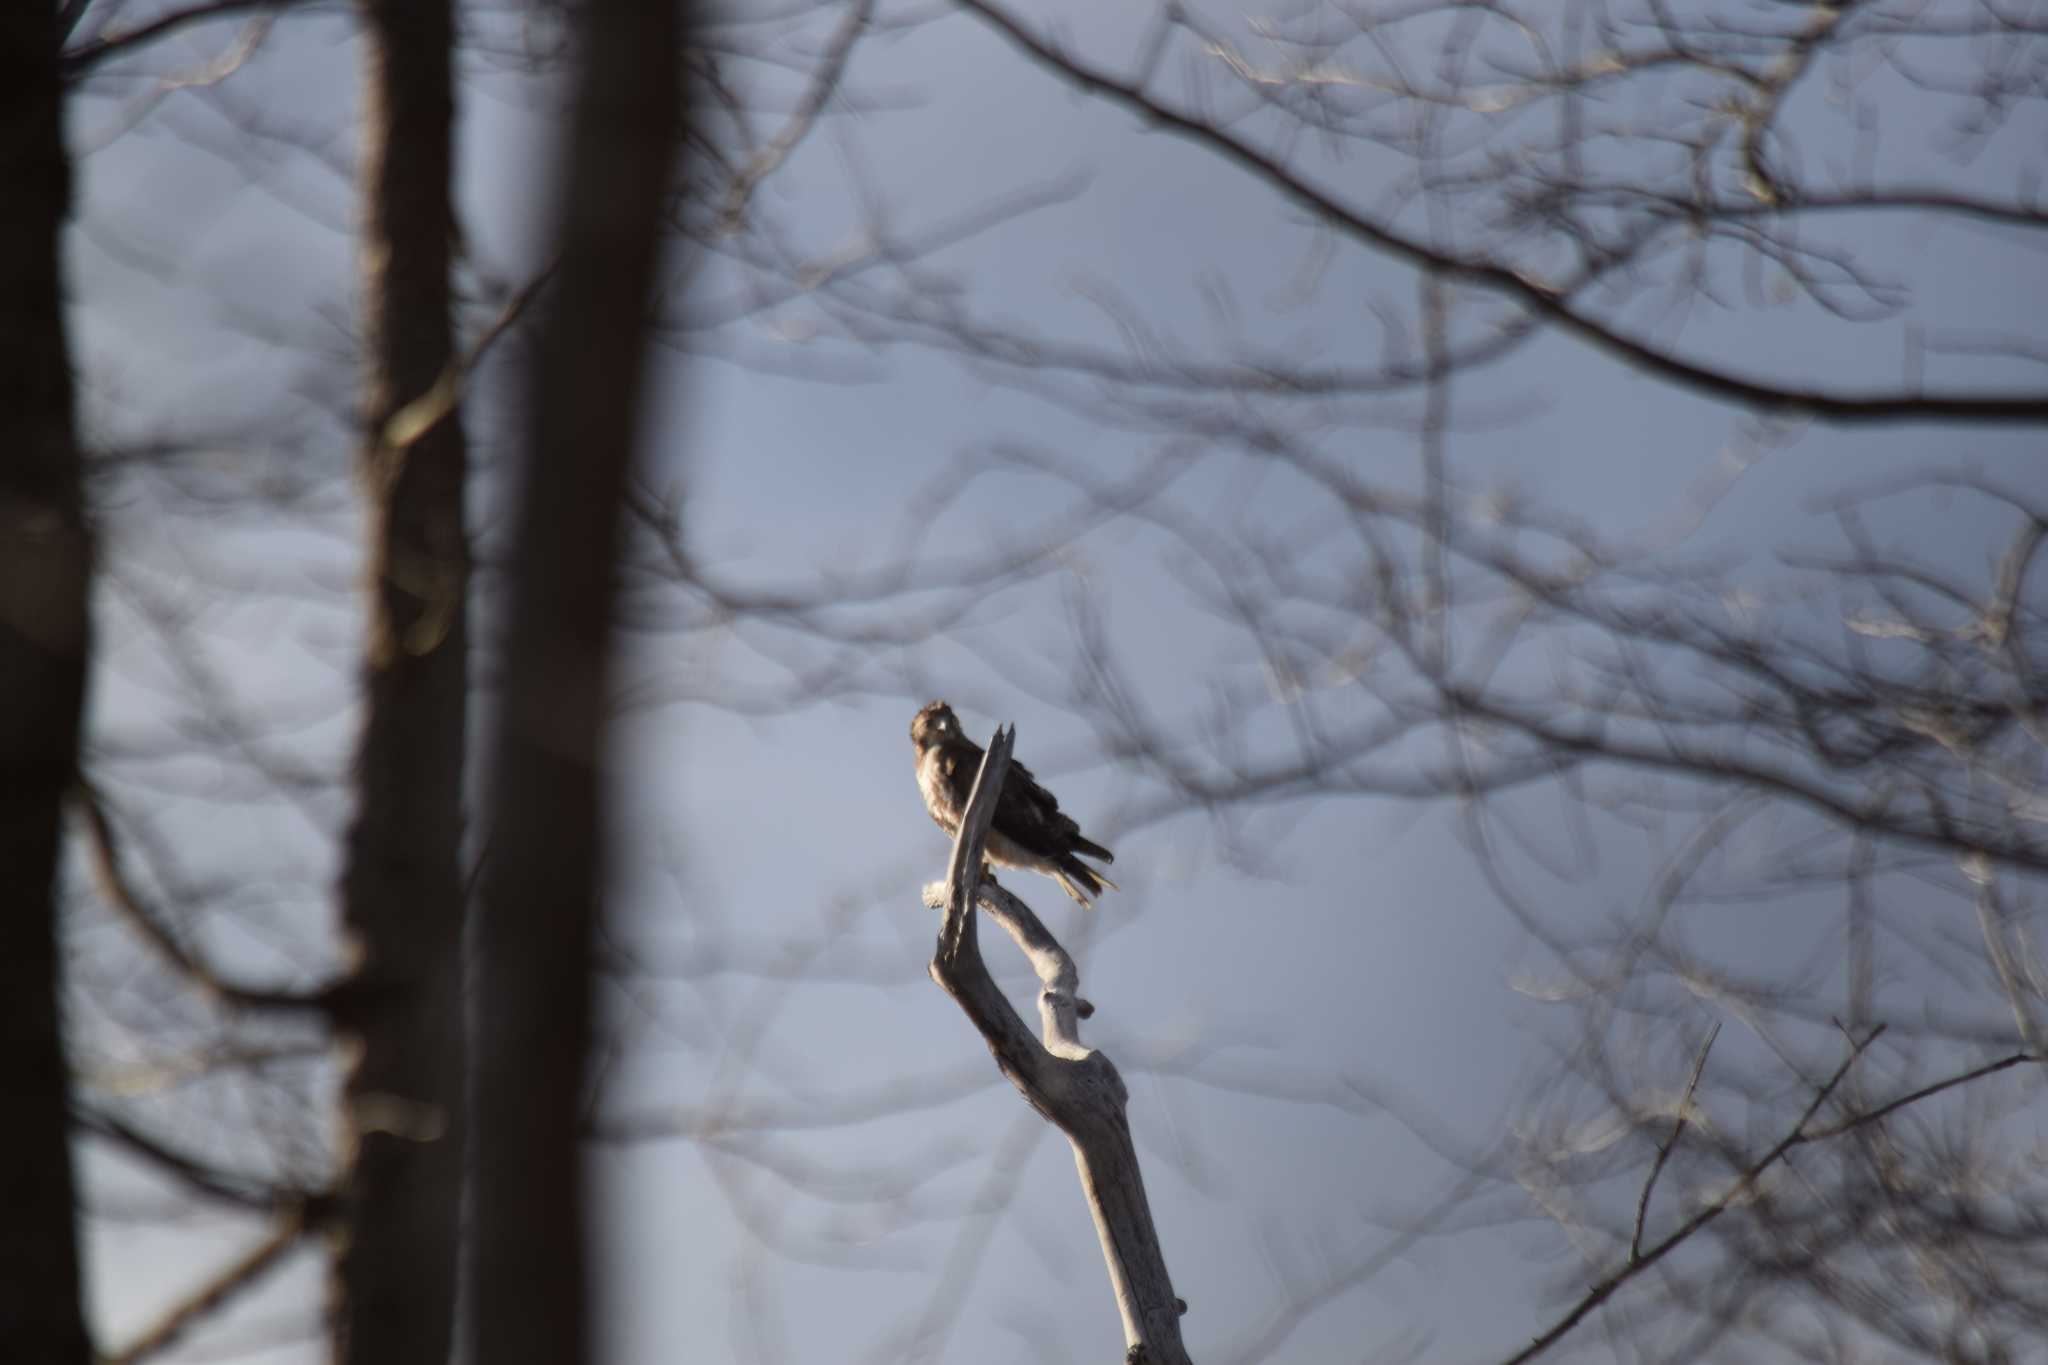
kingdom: Animalia
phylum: Chordata
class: Aves
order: Accipitriformes
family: Accipitridae
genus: Buteo
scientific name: Buteo jamaicensis
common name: Red-tailed hawk
